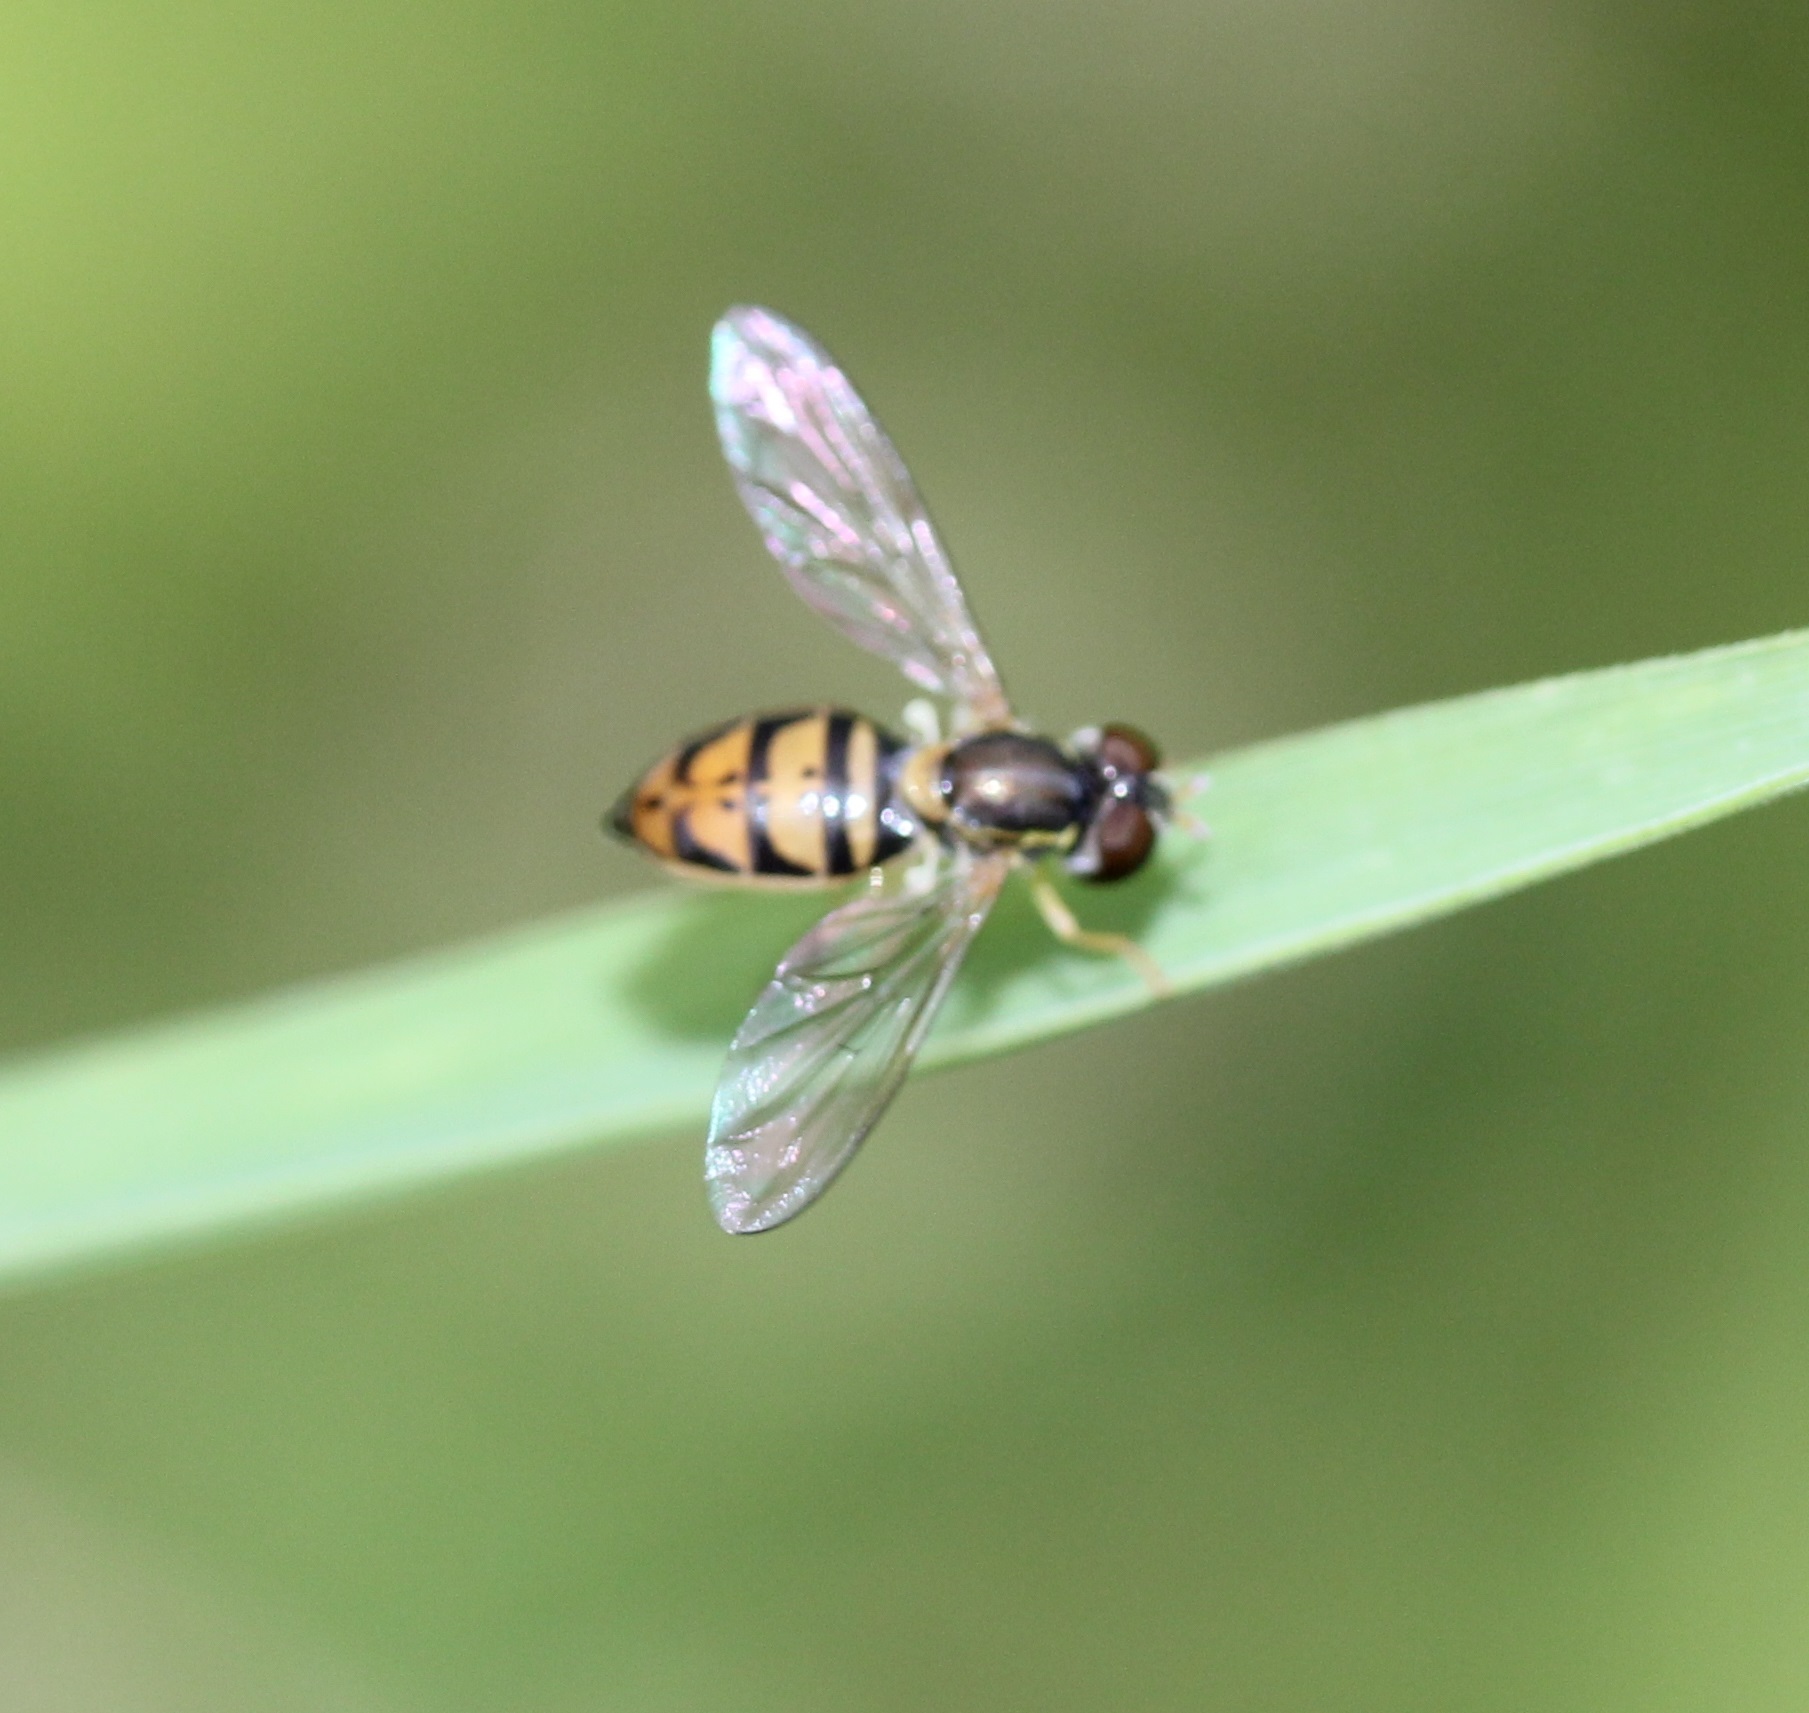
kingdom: Animalia
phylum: Arthropoda
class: Insecta
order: Diptera
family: Syrphidae
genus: Toxomerus
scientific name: Toxomerus marginatus
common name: Syrphid fly
